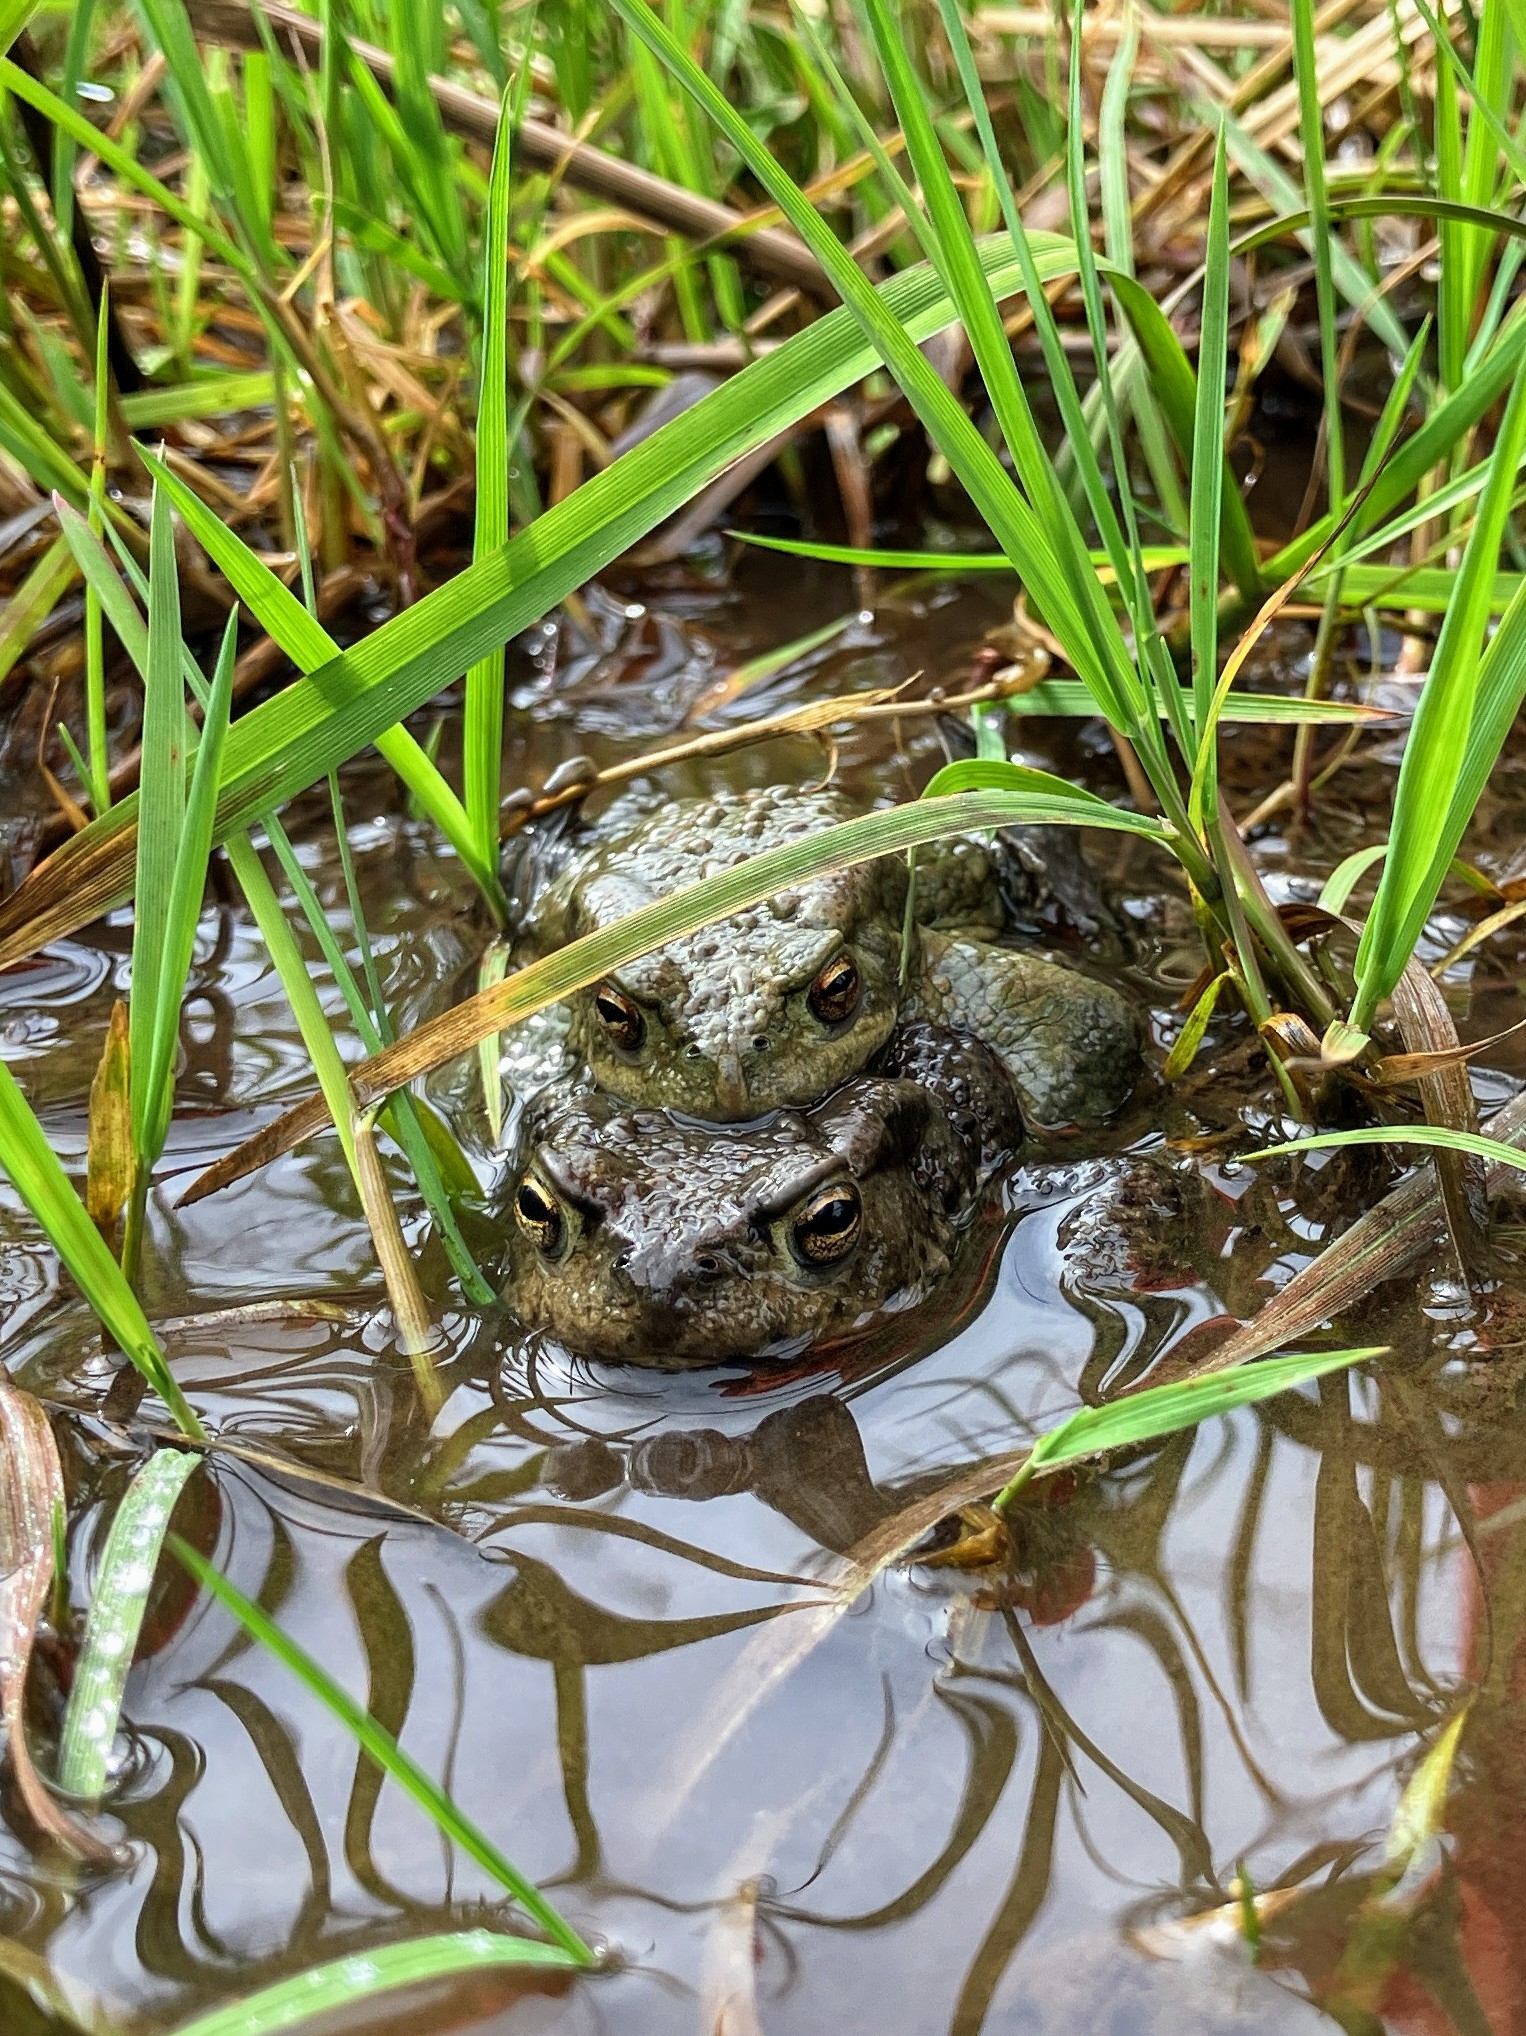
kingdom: Animalia
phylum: Chordata
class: Amphibia
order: Anura
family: Bufonidae
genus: Bufo
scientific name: Bufo bufo
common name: Common toad
